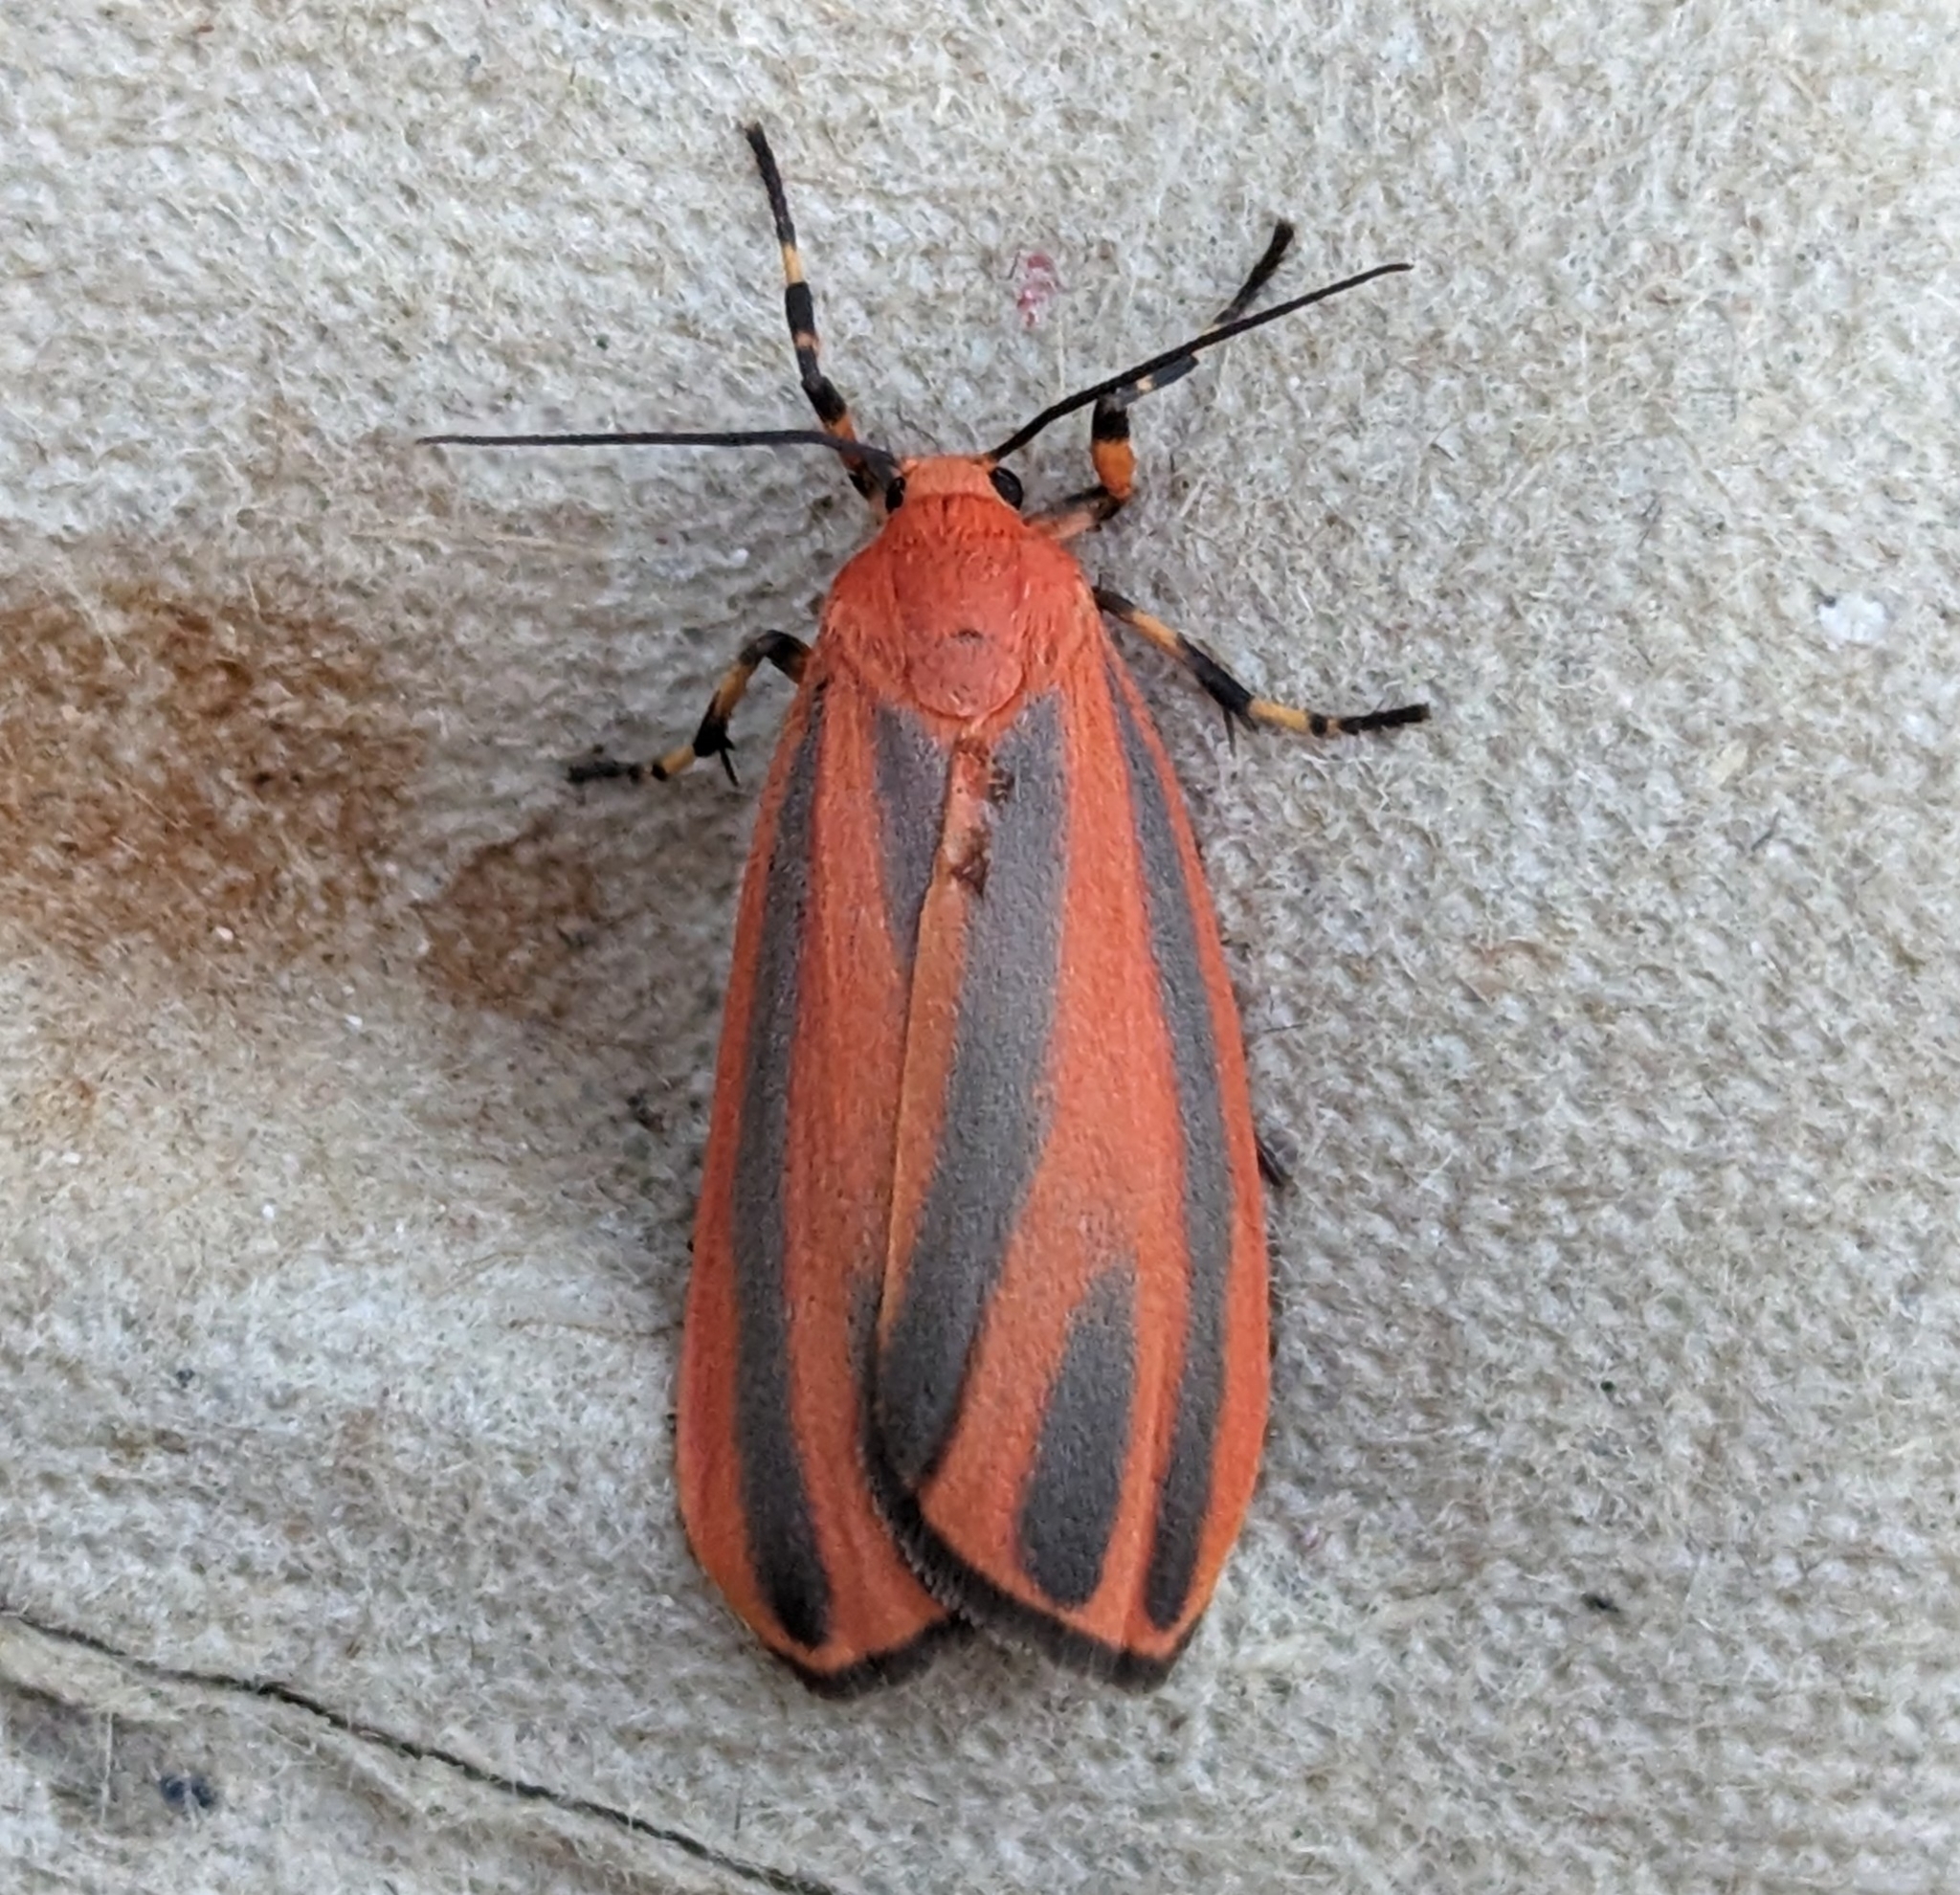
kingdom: Animalia
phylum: Arthropoda
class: Insecta
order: Lepidoptera
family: Erebidae
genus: Hypoprepia
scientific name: Hypoprepia miniata
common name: Scarlet-winged lichen moth
